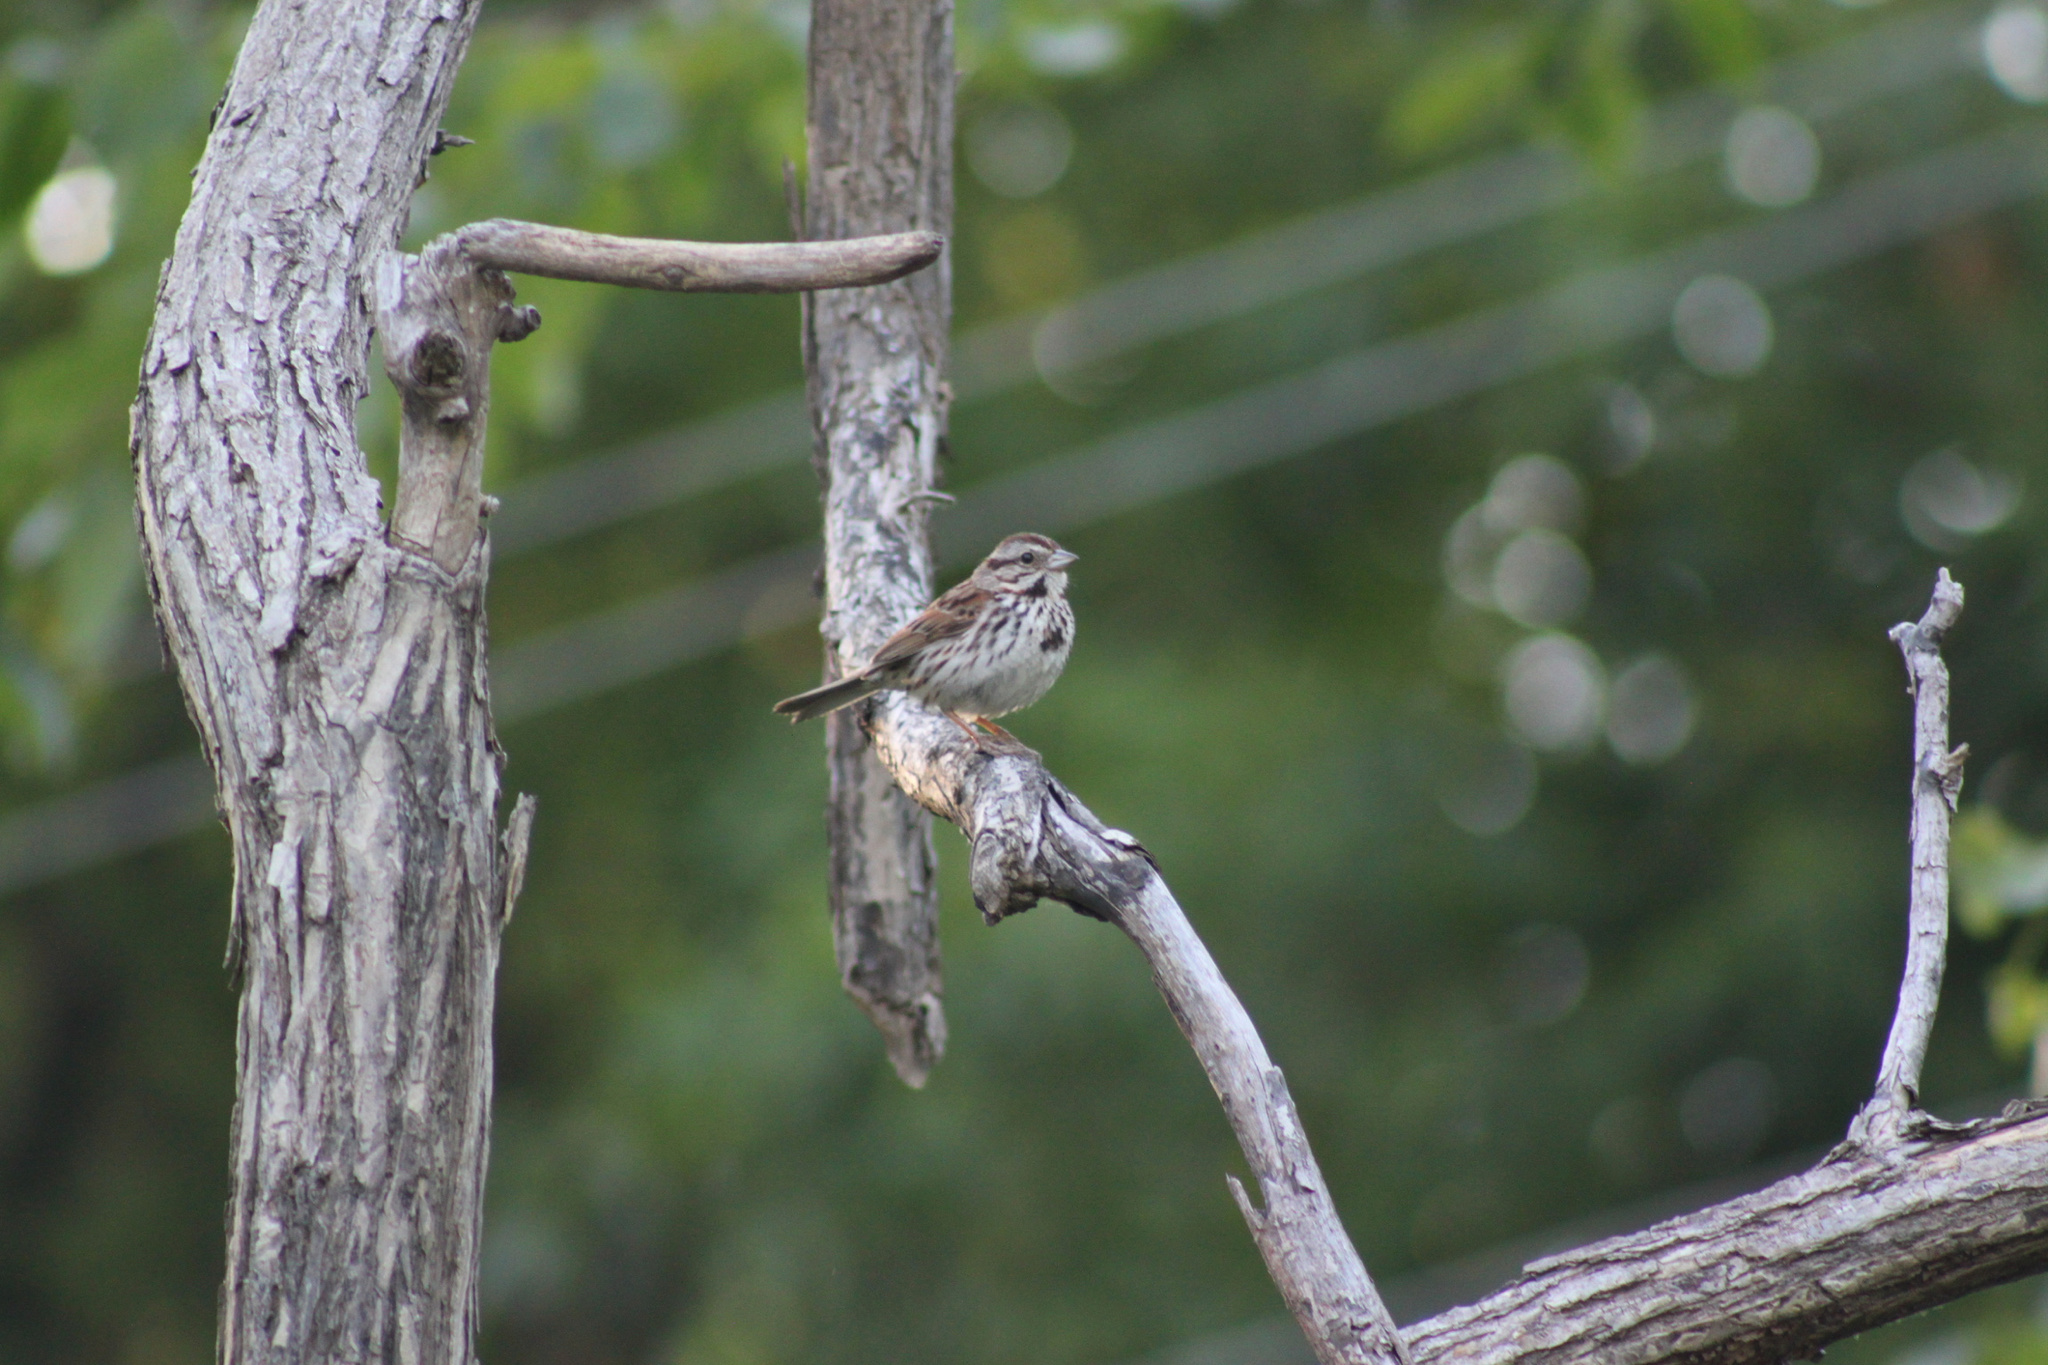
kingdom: Animalia
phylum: Chordata
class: Aves
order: Passeriformes
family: Passerellidae
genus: Melospiza
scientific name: Melospiza melodia
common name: Song sparrow
